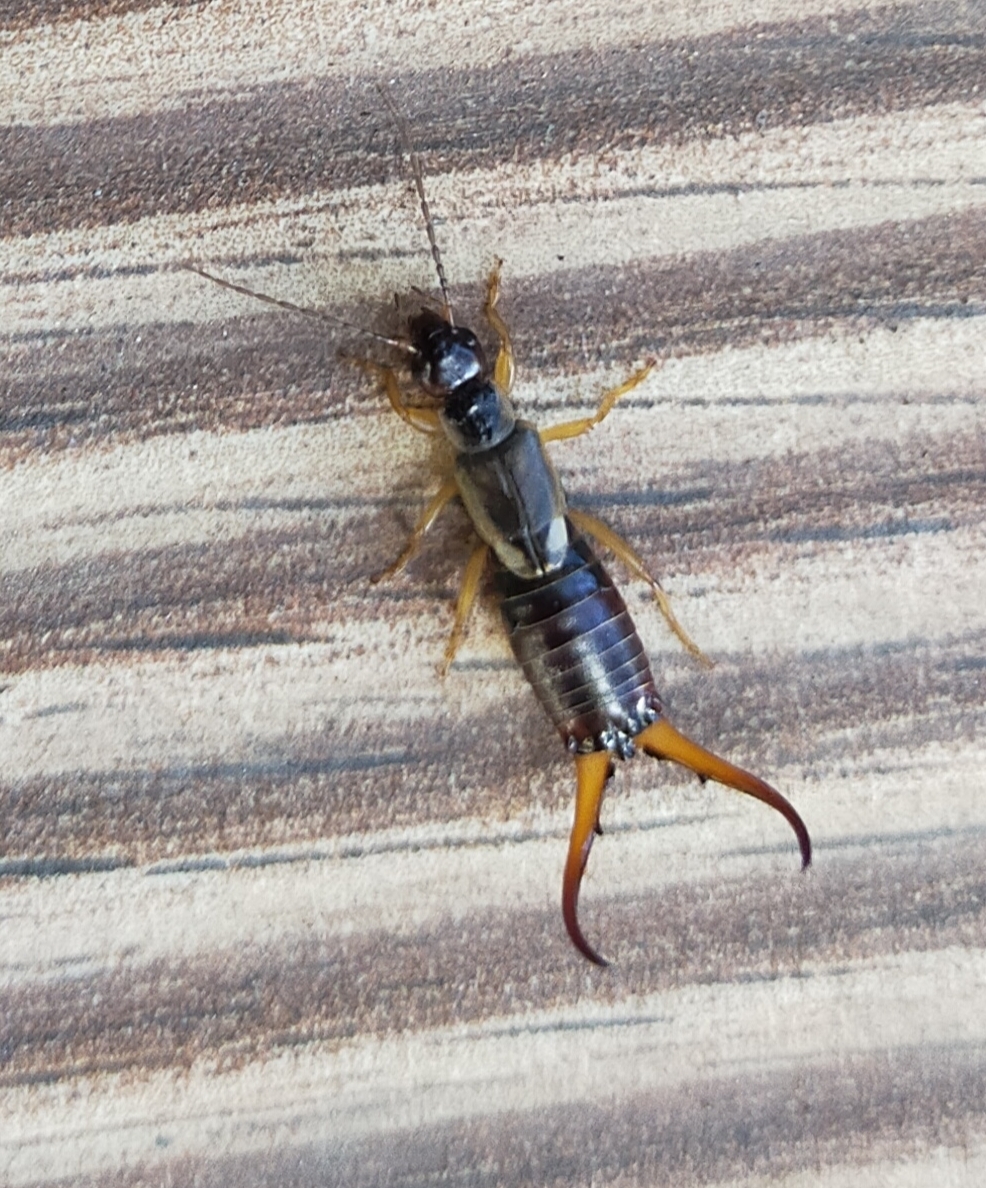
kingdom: Animalia
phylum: Arthropoda
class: Insecta
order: Dermaptera
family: Forficulidae
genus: Forficula
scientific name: Forficula
